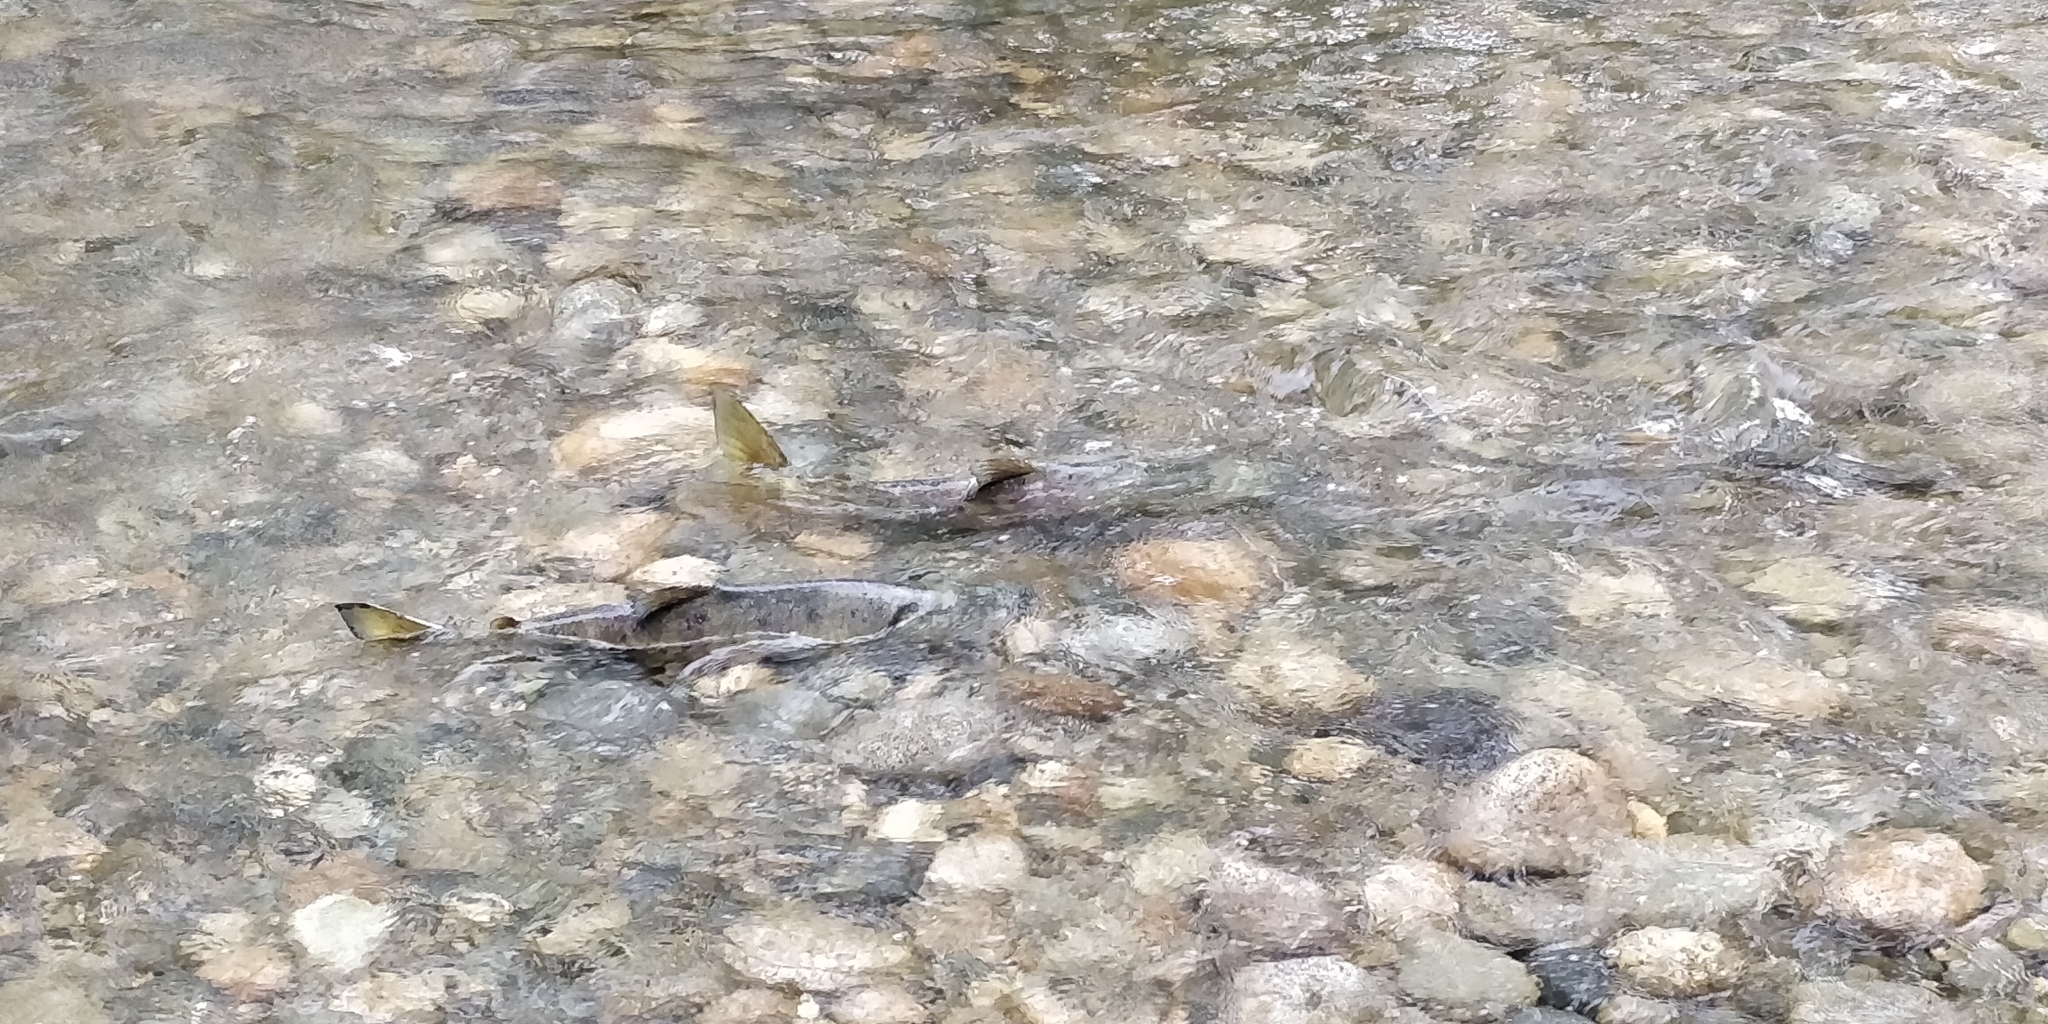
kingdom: Animalia
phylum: Chordata
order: Salmoniformes
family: Salmonidae
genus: Oncorhynchus
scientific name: Oncorhynchus keta
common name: Chum salmon
